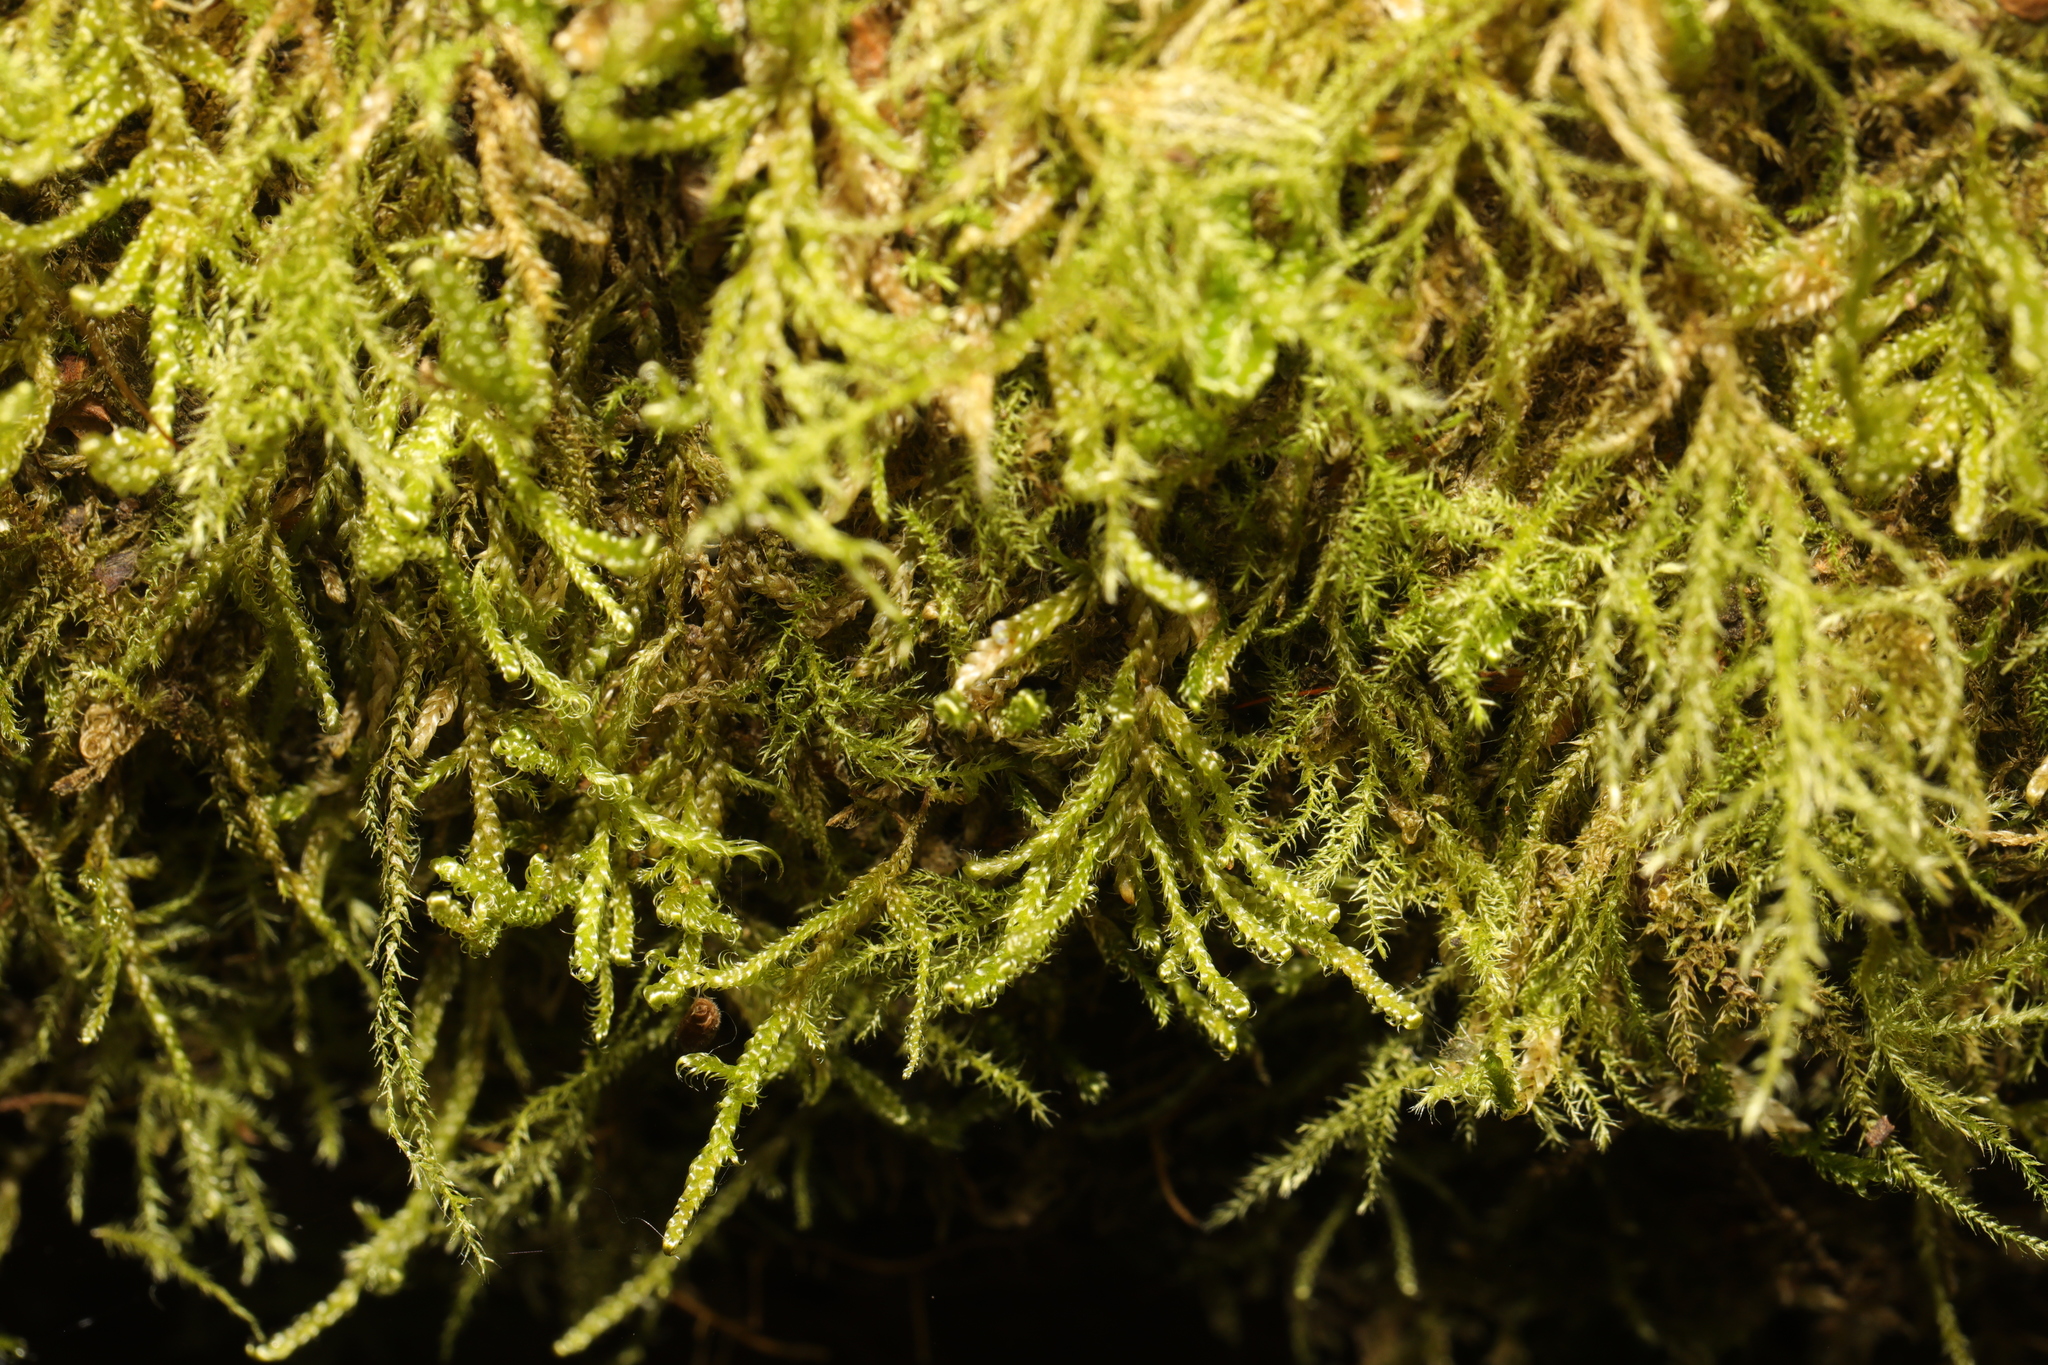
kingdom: Plantae
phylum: Bryophyta
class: Bryopsida
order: Hypnales
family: Hypnaceae
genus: Hypnum
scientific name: Hypnum cupressiforme
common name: Cypress-leaved plait-moss
